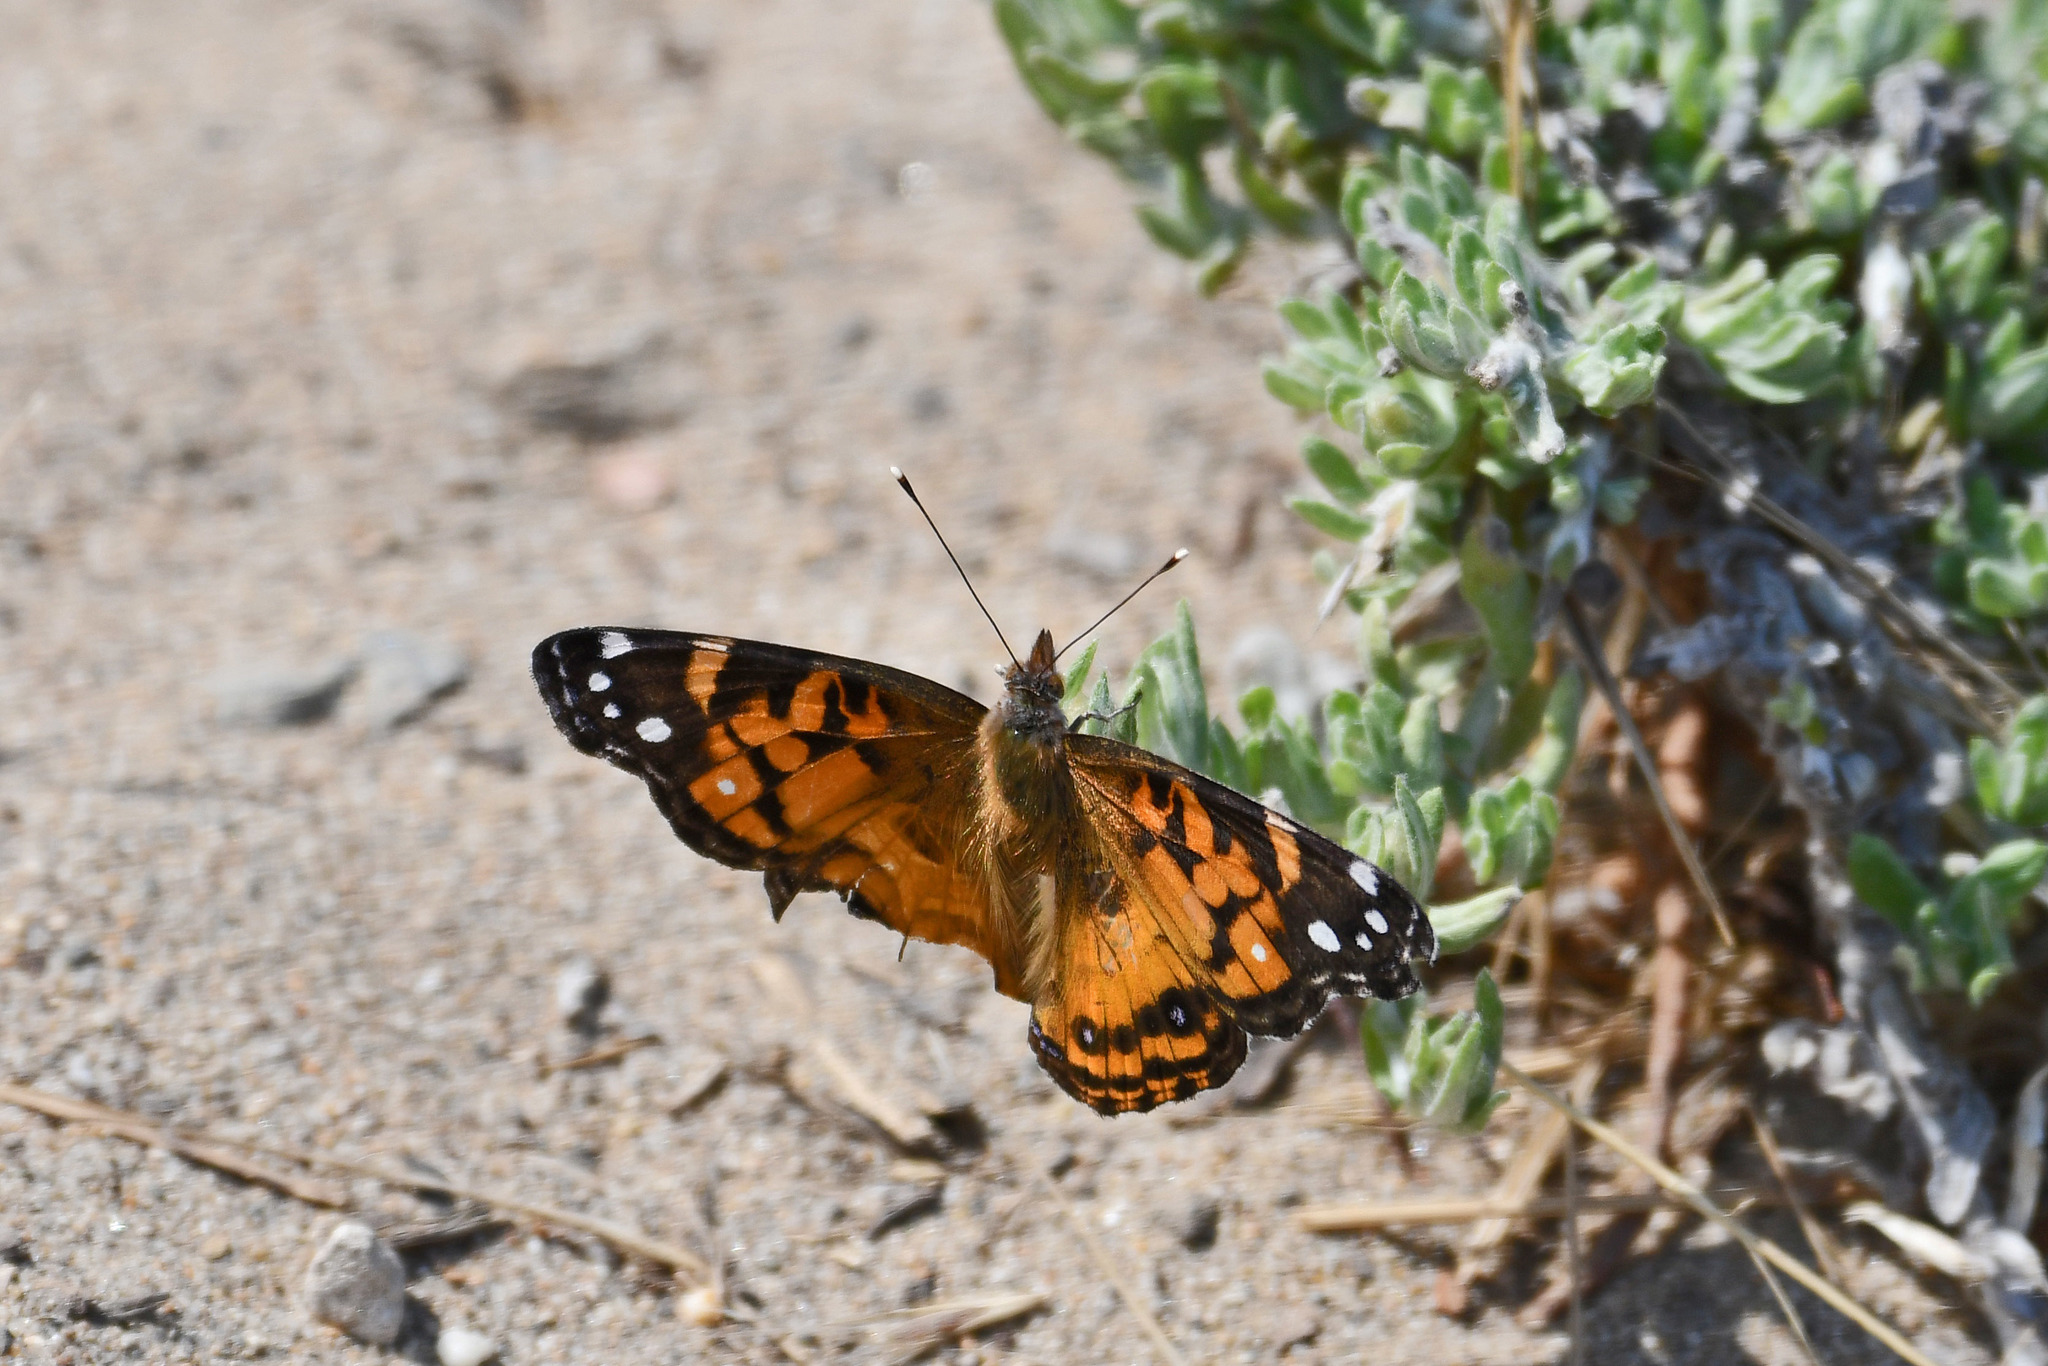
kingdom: Animalia
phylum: Arthropoda
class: Insecta
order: Lepidoptera
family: Nymphalidae
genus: Vanessa
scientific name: Vanessa virginiensis
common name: American lady
